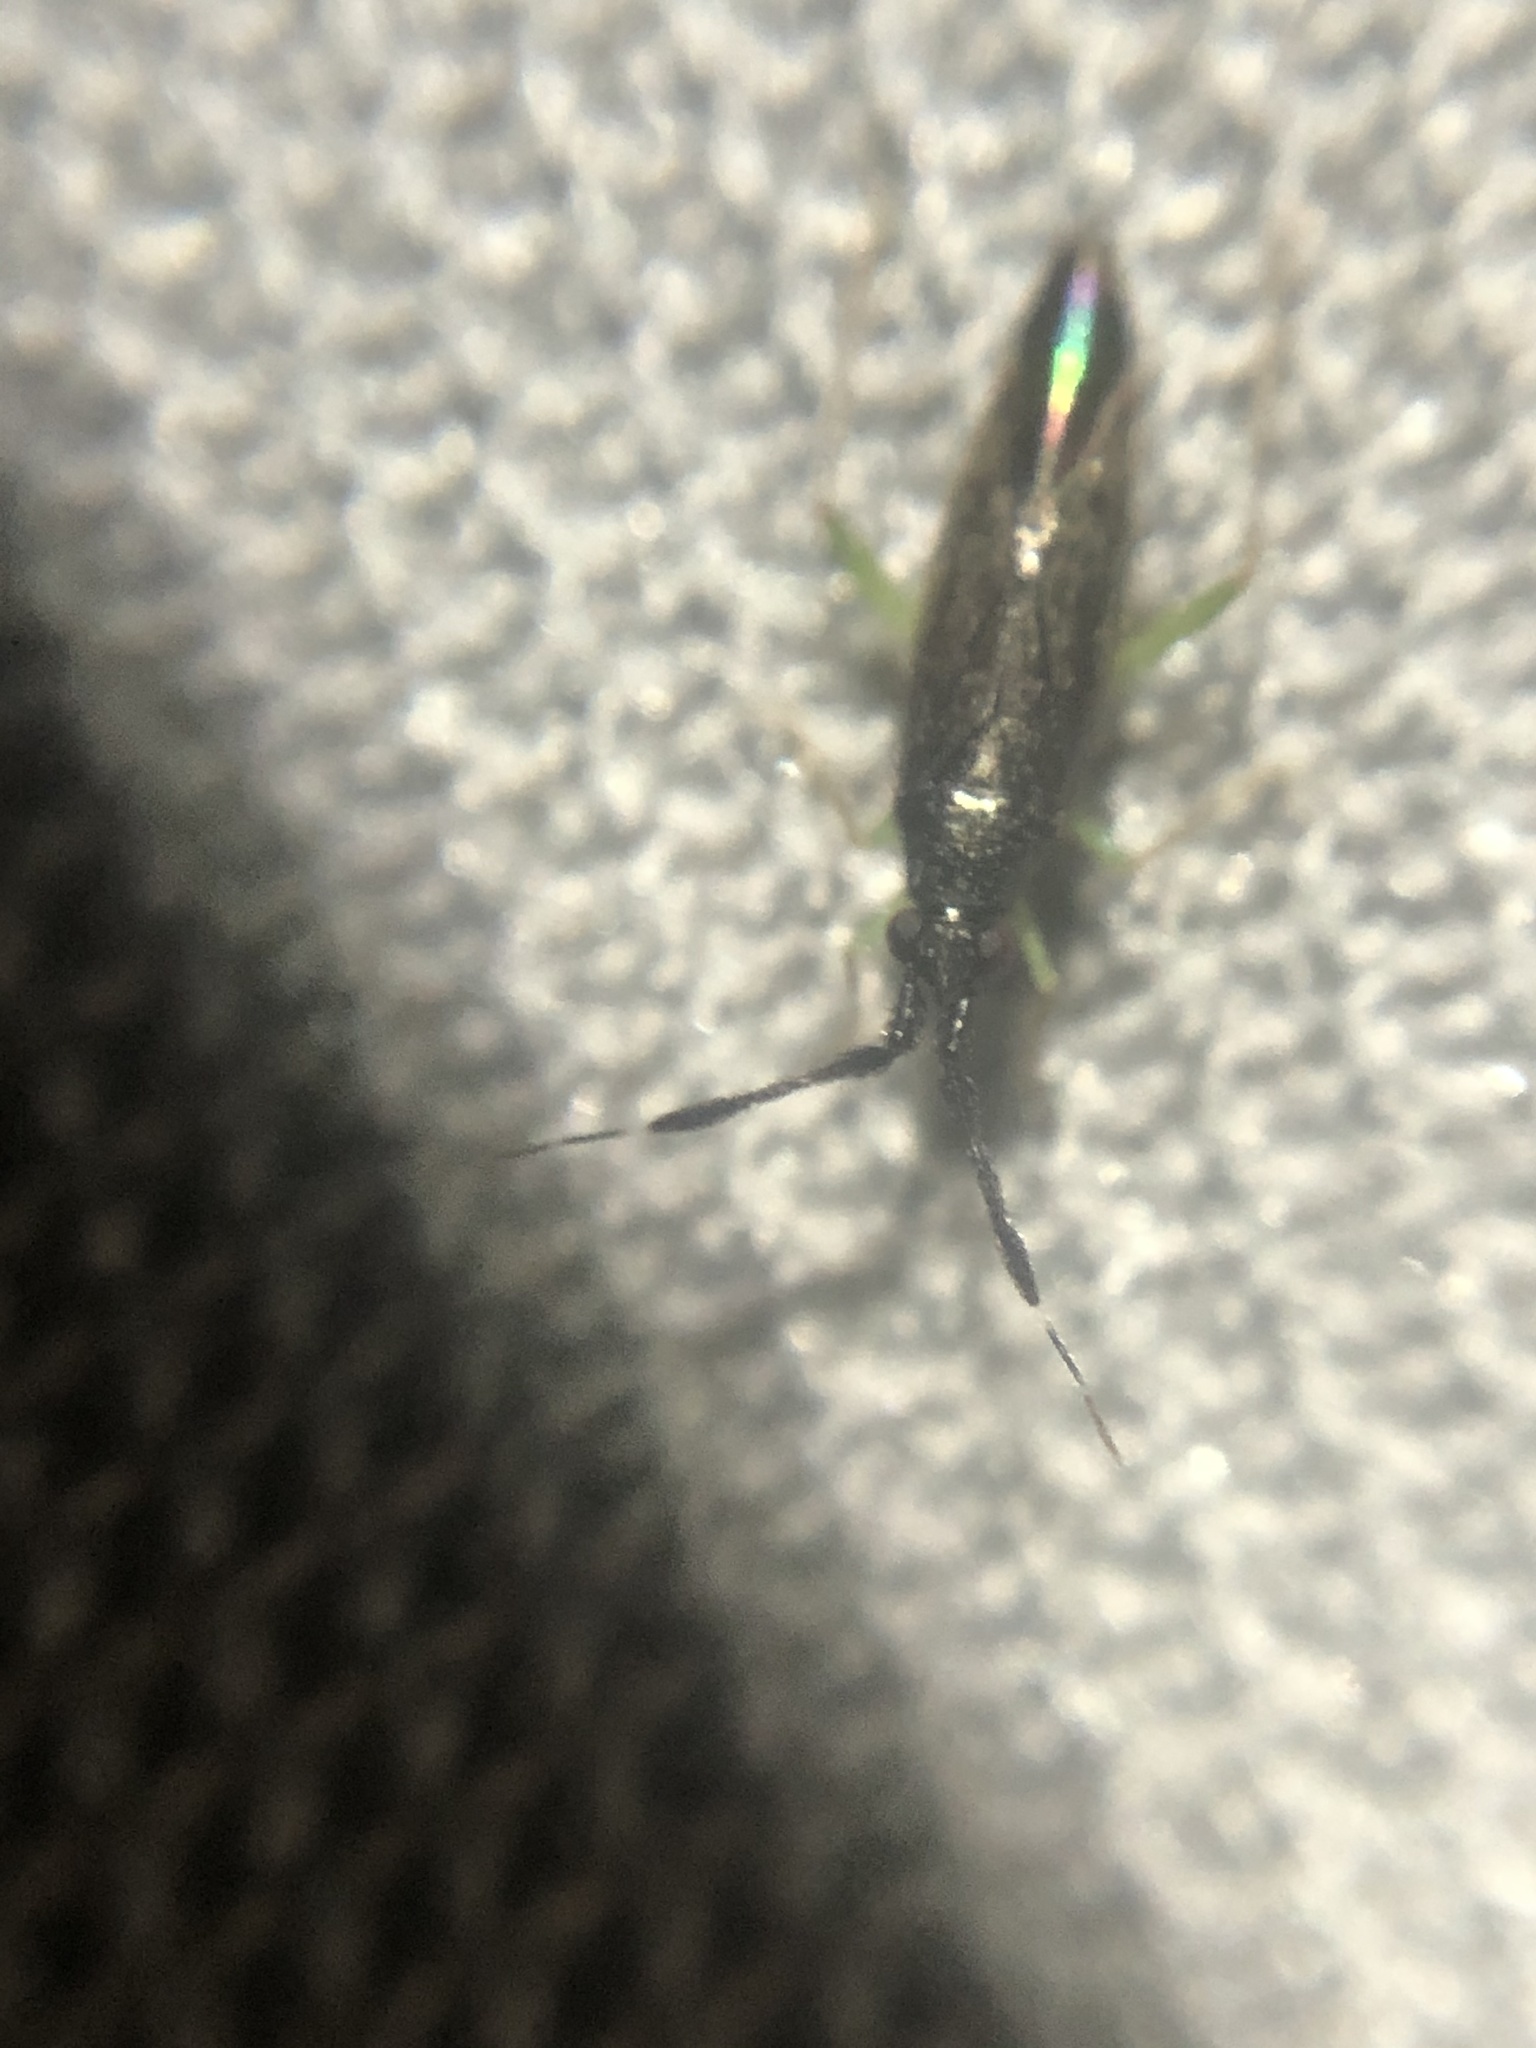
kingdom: Animalia
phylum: Arthropoda
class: Insecta
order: Hemiptera
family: Miridae
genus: Heterotoma
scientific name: Heterotoma planicornis
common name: Plant bug
